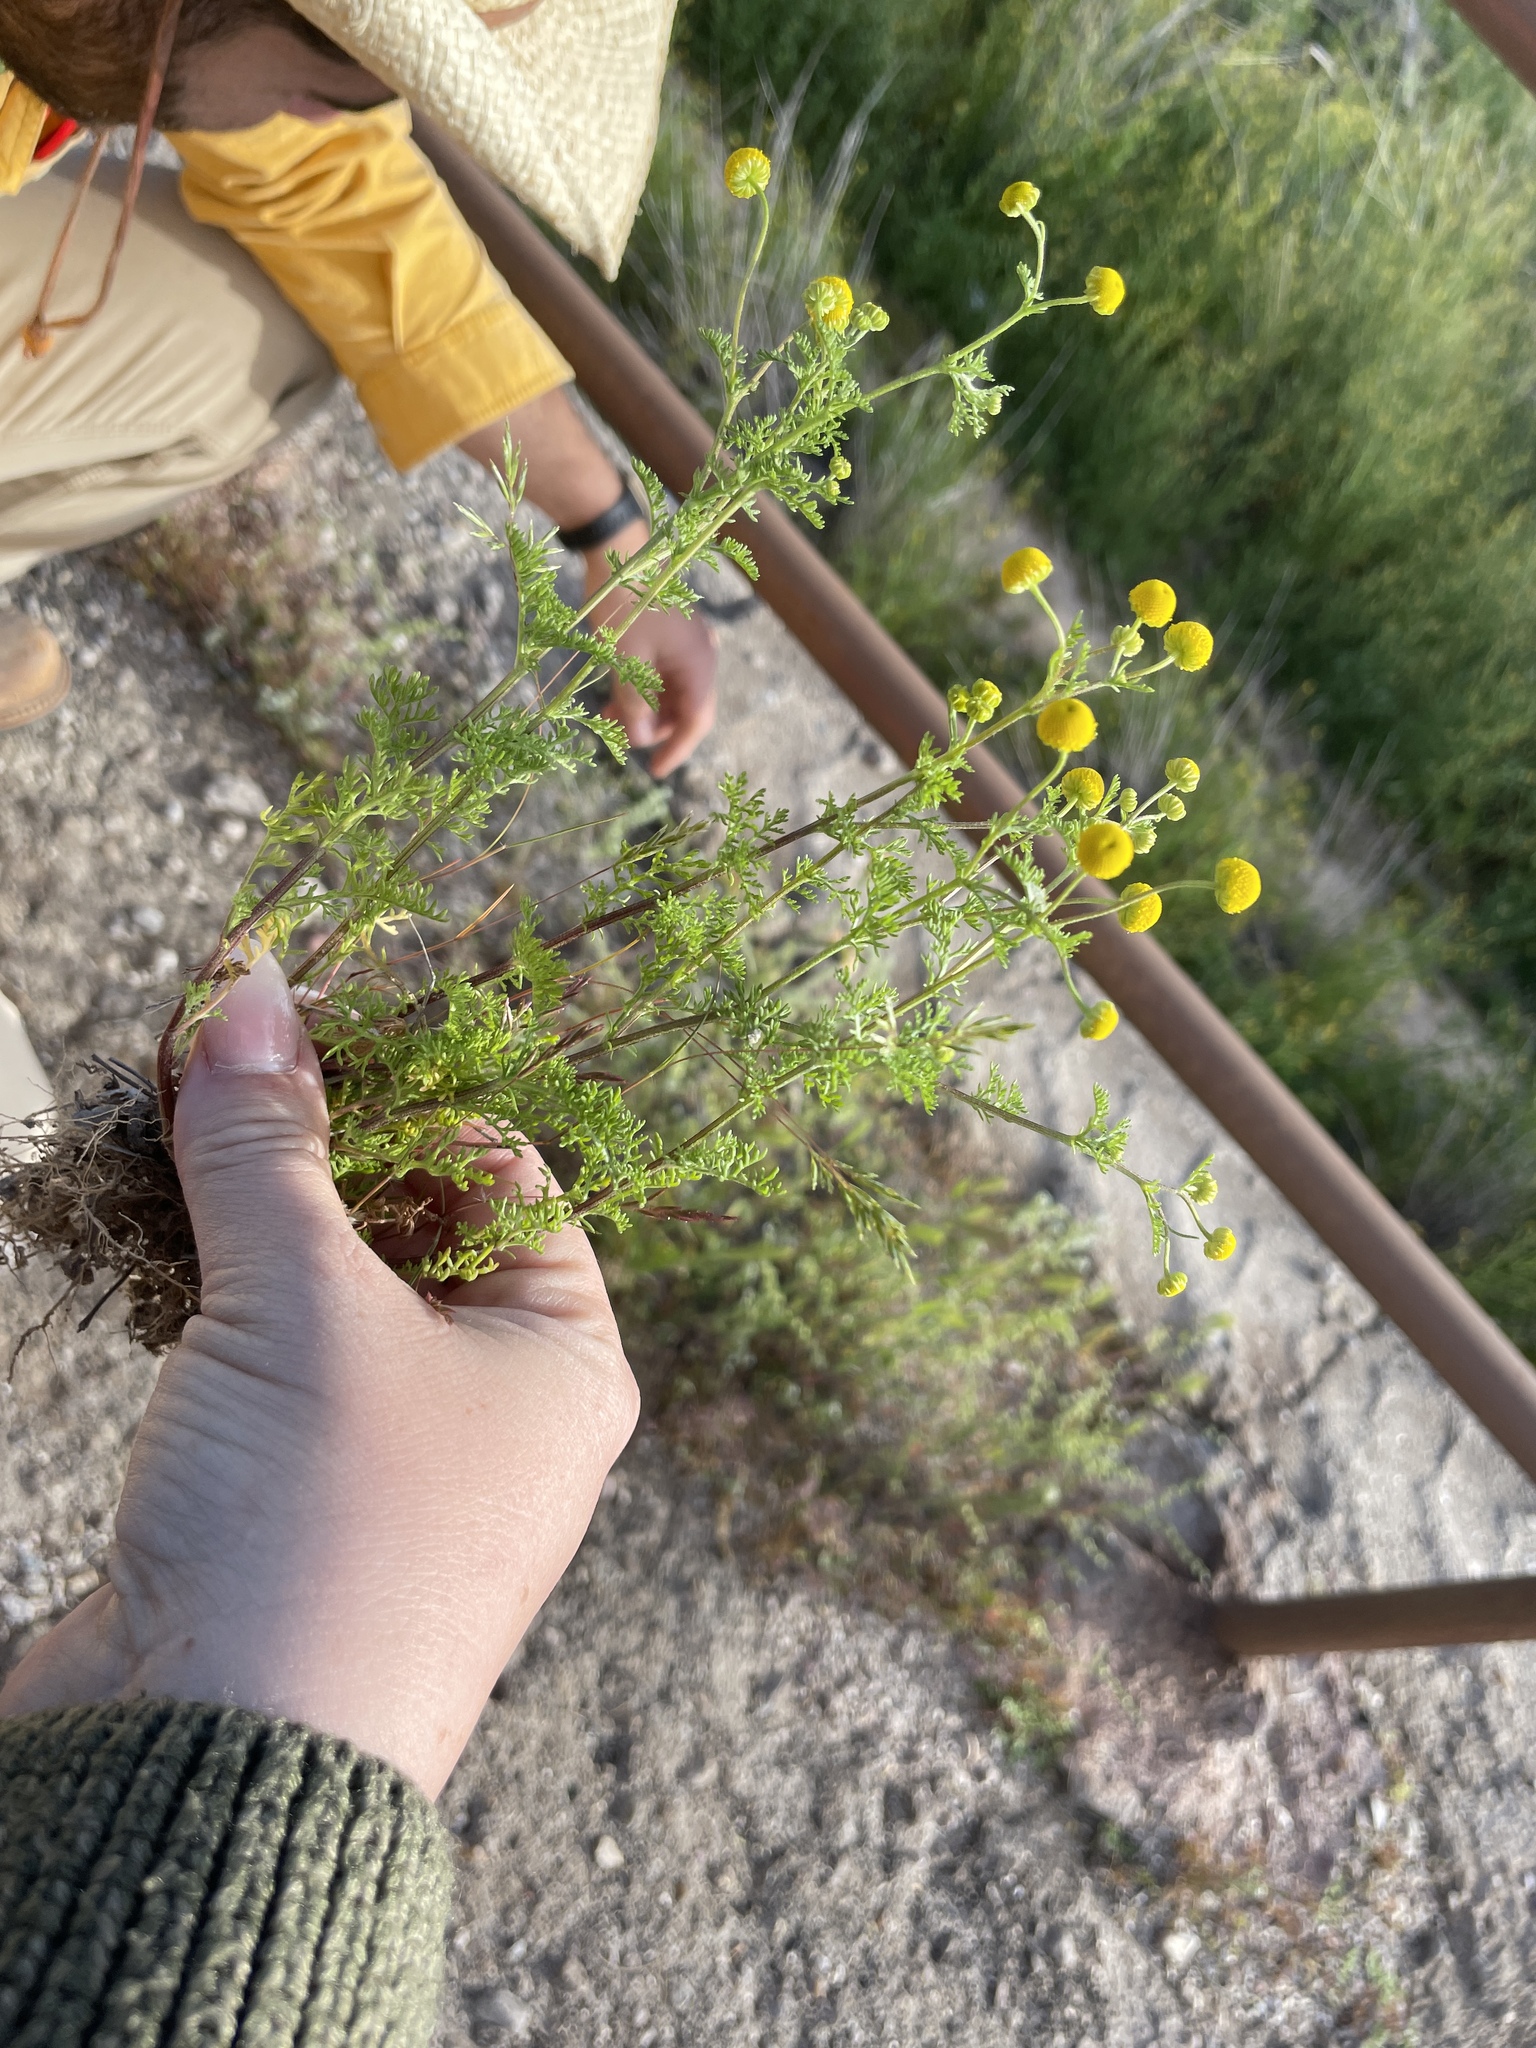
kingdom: Plantae
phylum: Tracheophyta
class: Magnoliopsida
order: Asterales
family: Asteraceae
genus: Oncosiphon
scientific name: Oncosiphon pilulifer
